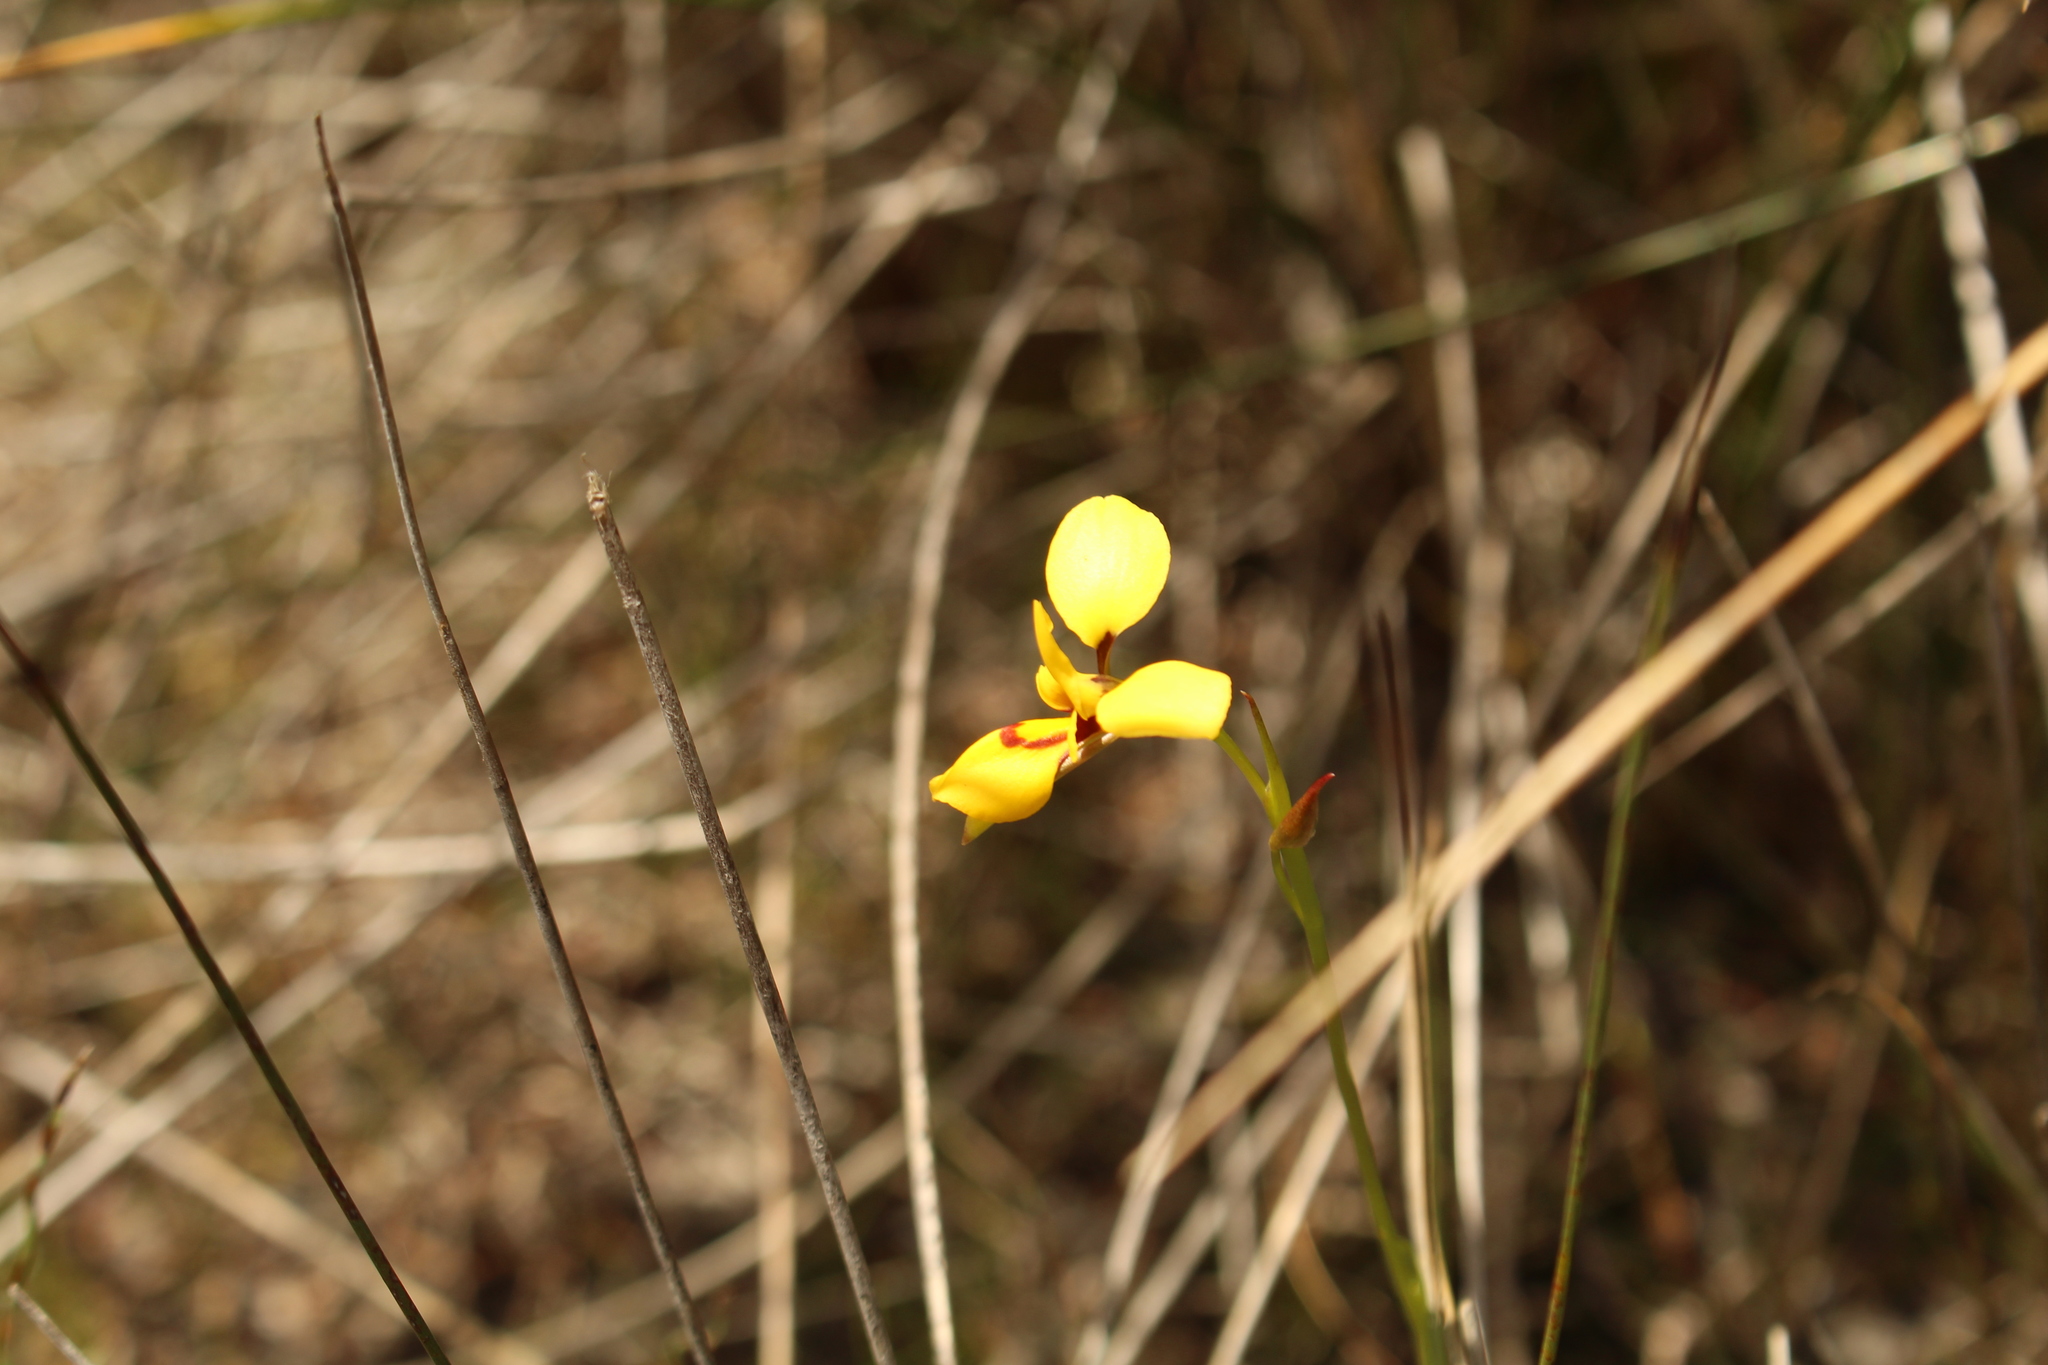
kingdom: Plantae
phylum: Tracheophyta
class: Liliopsida
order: Asparagales
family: Orchidaceae
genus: Diuris
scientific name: Diuris emarginata
